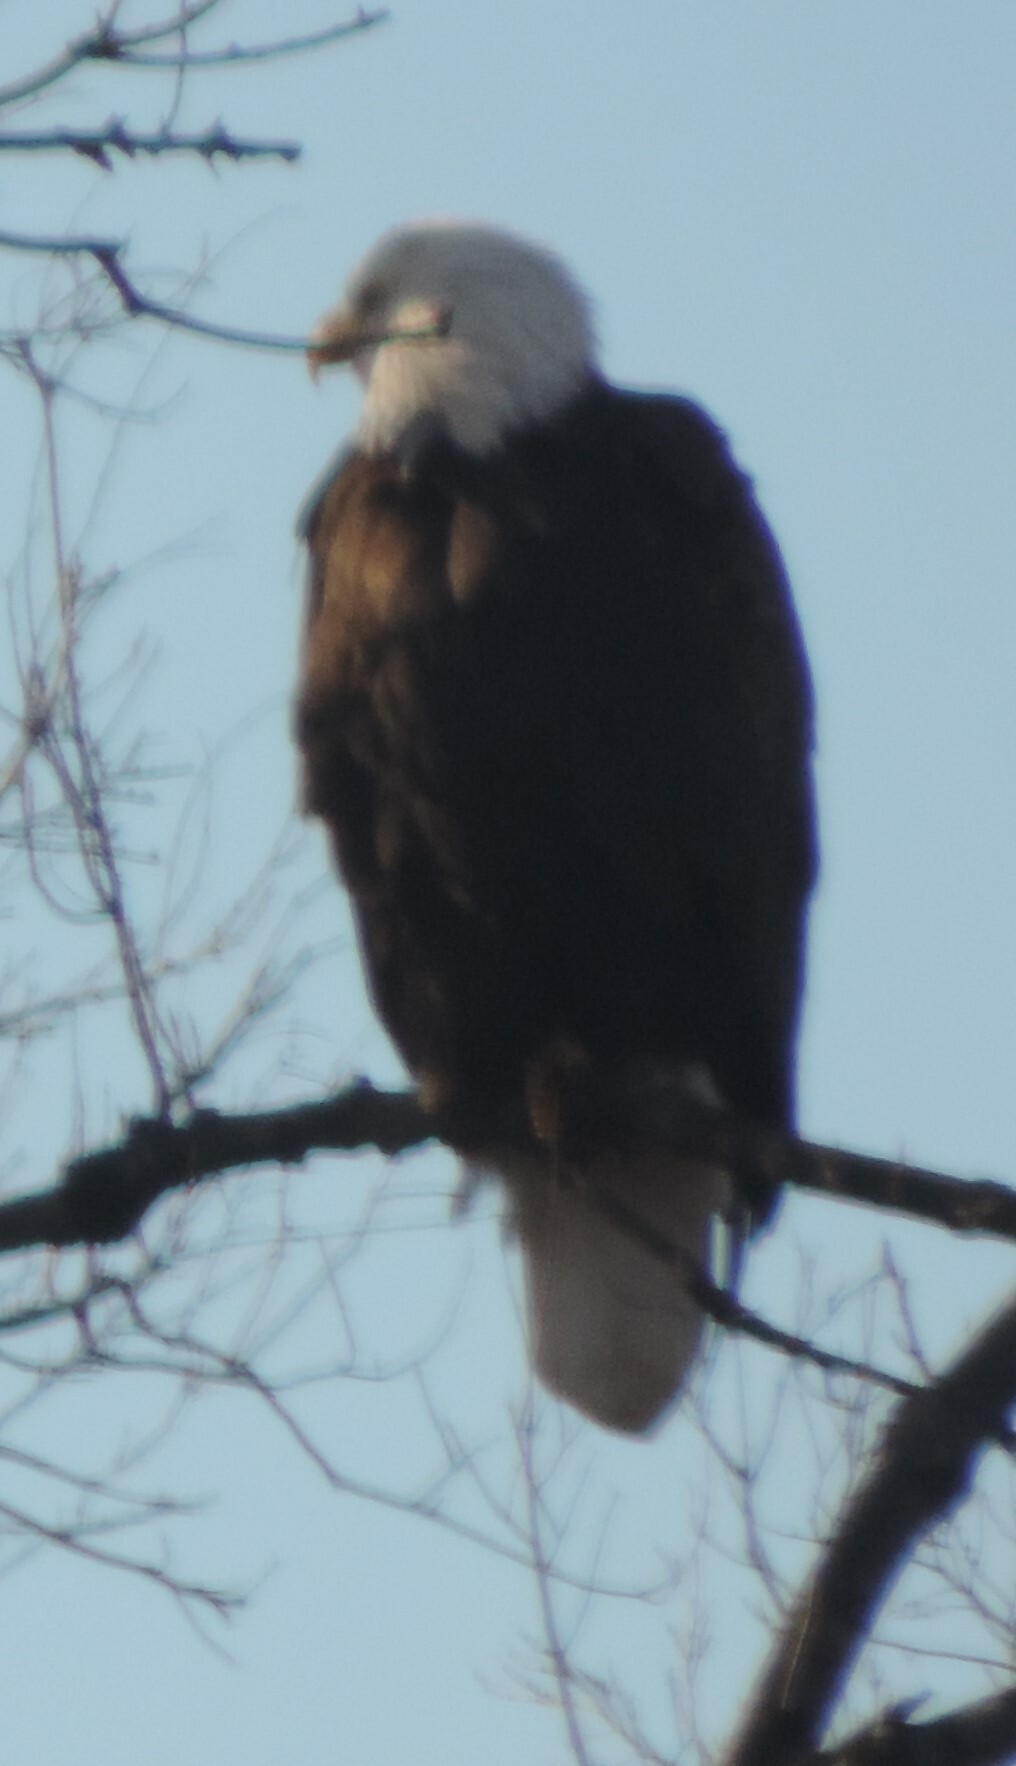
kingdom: Animalia
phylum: Chordata
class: Aves
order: Accipitriformes
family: Accipitridae
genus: Haliaeetus
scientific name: Haliaeetus leucocephalus
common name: Bald eagle
